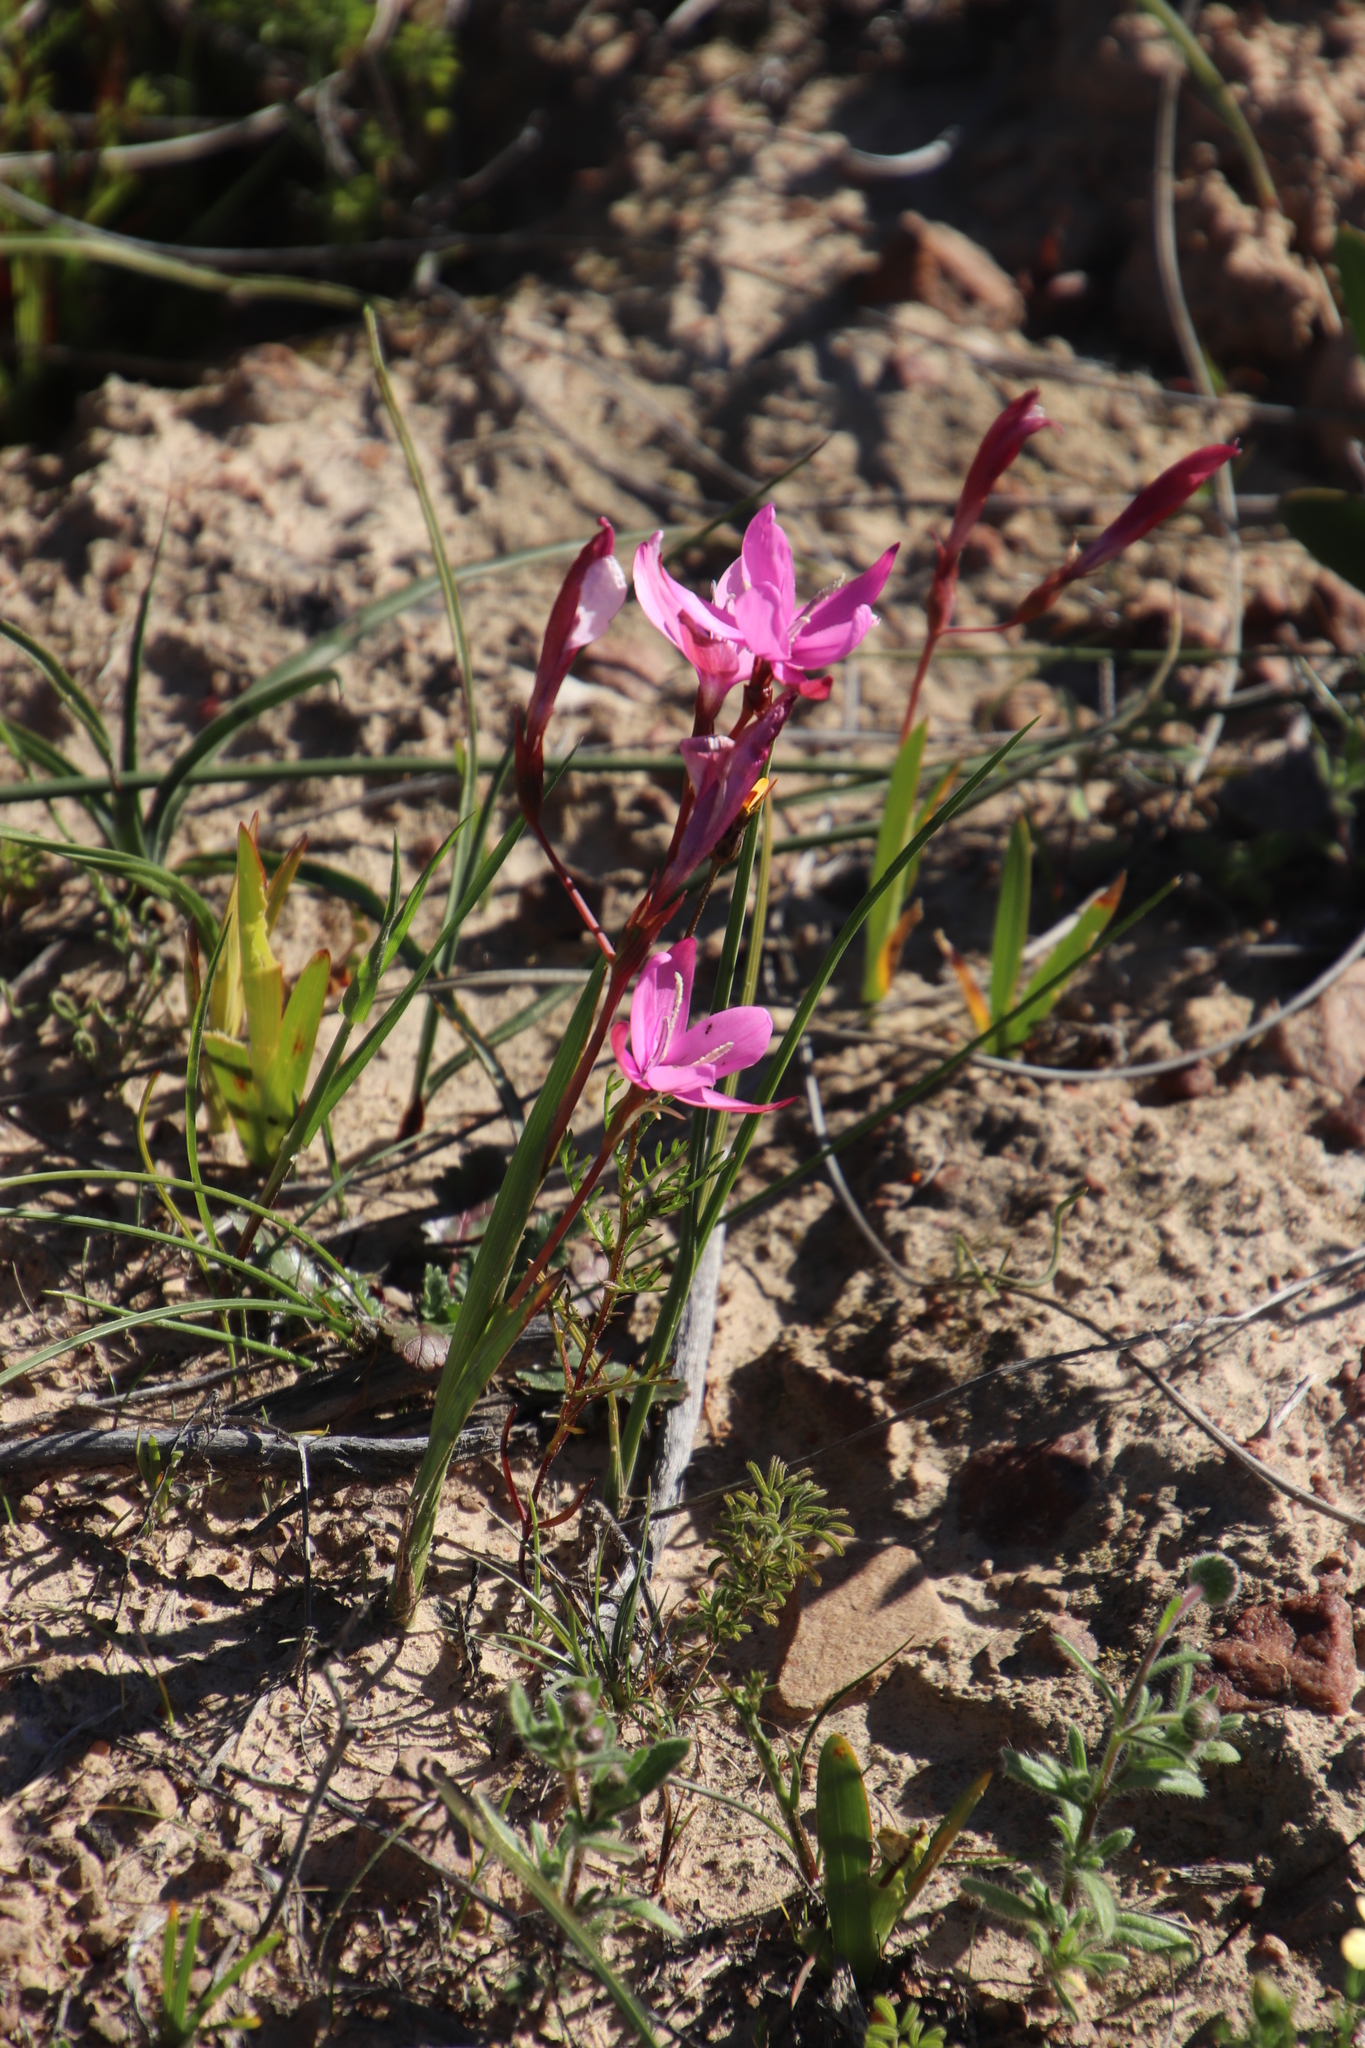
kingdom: Plantae
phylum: Tracheophyta
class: Liliopsida
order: Asparagales
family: Iridaceae
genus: Hesperantha
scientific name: Hesperantha pauciflora
